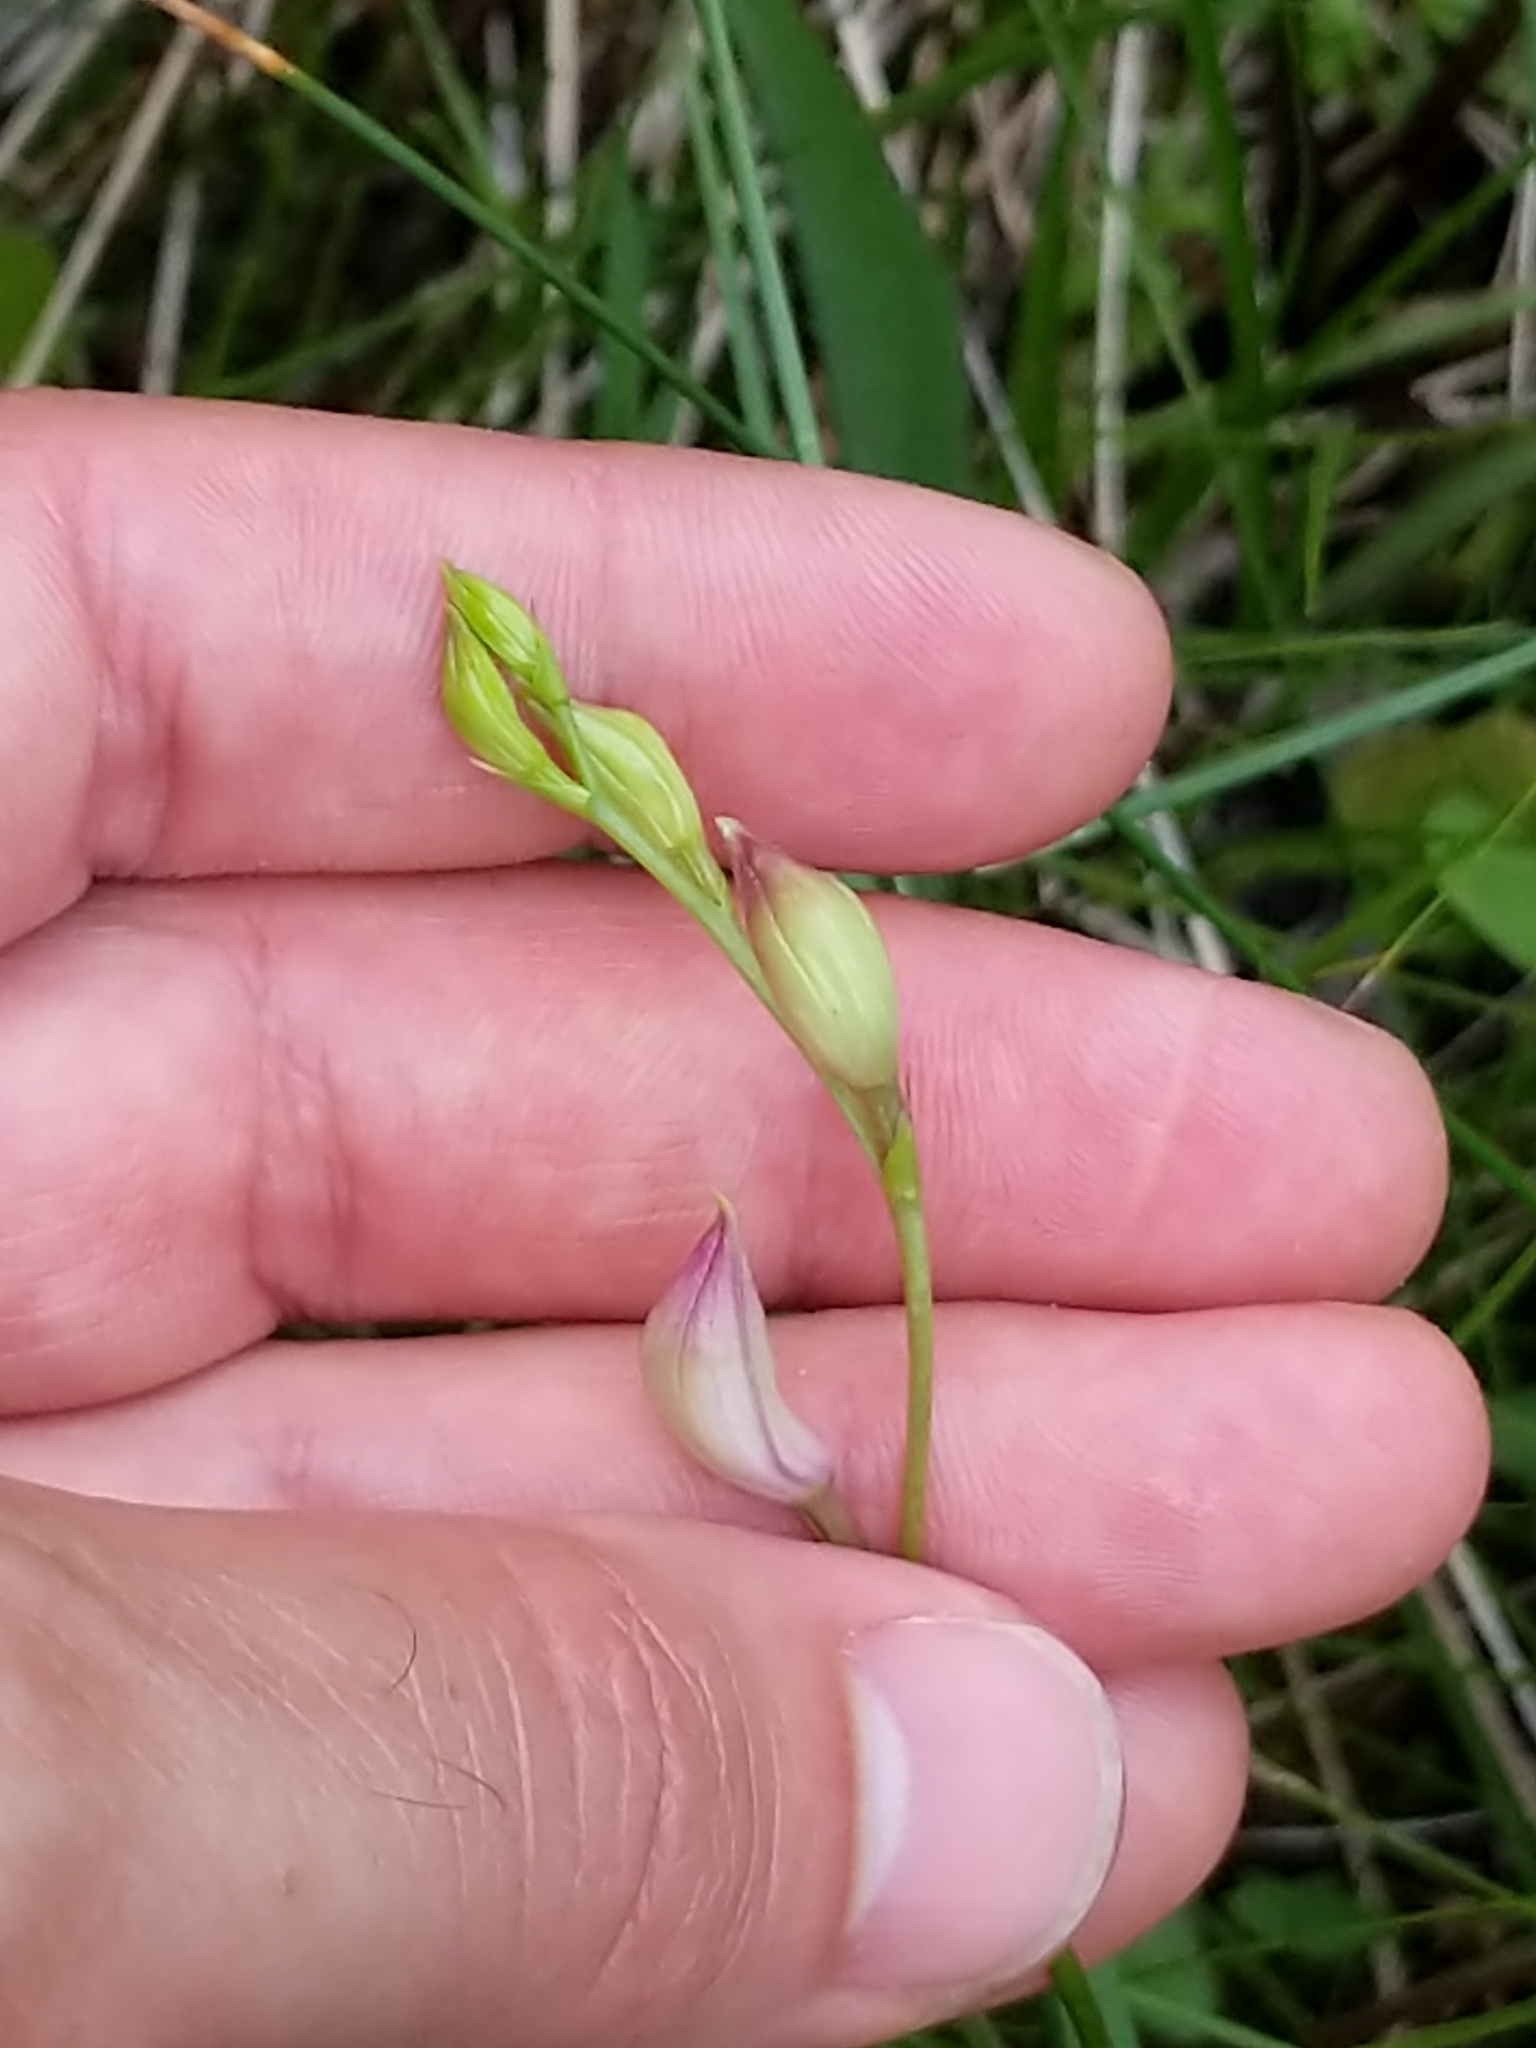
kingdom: Plantae
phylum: Tracheophyta
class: Liliopsida
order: Asparagales
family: Orchidaceae
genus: Calopogon
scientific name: Calopogon tuberosus
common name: Grass-pink
